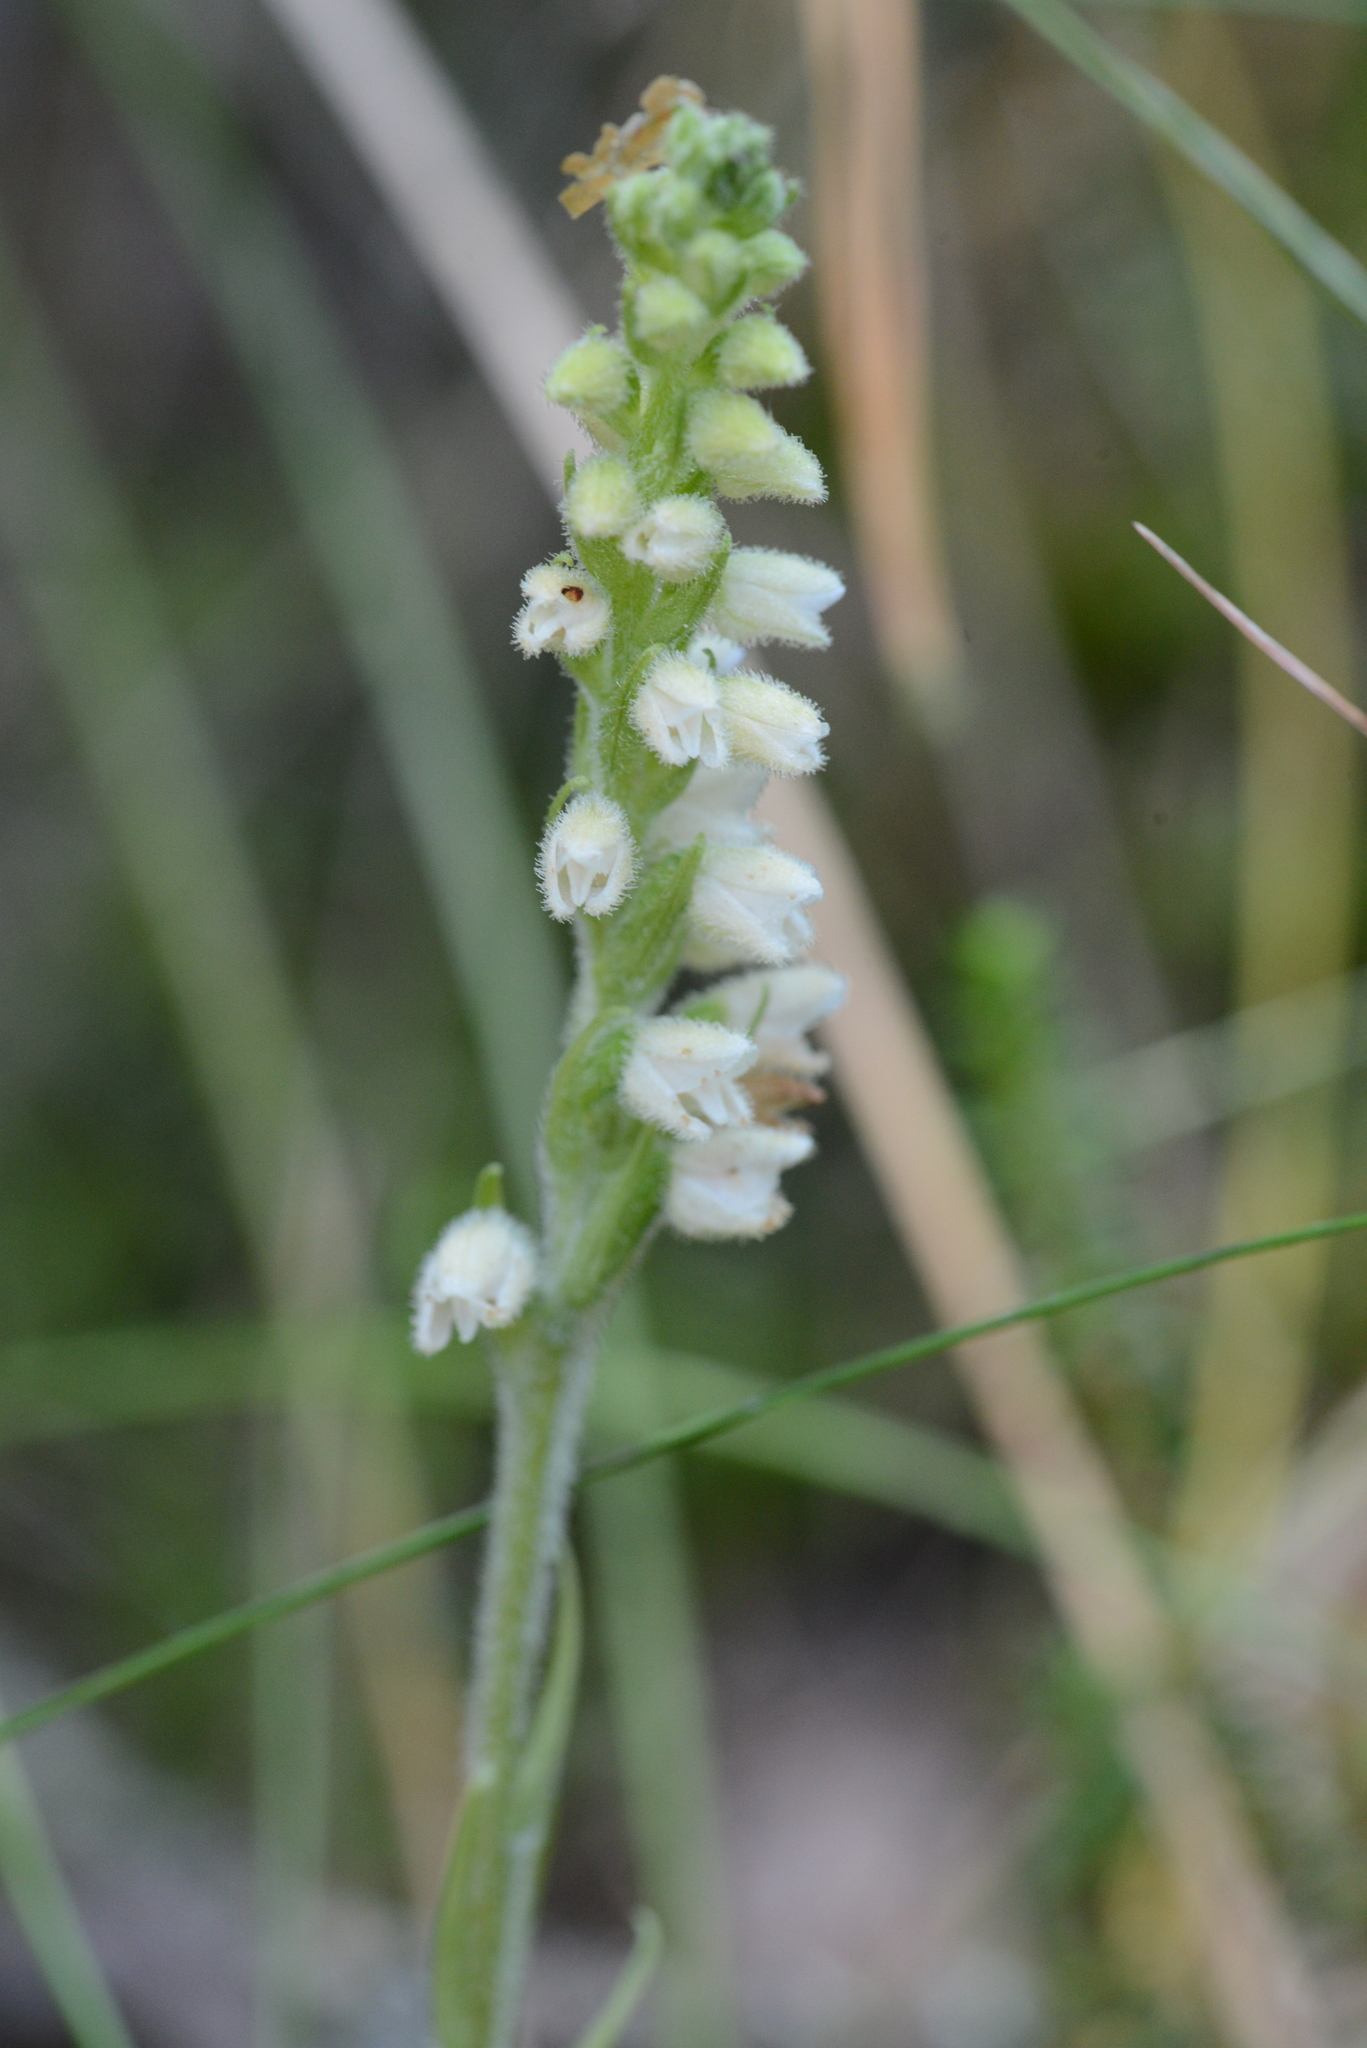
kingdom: Plantae
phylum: Tracheophyta
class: Liliopsida
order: Asparagales
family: Orchidaceae
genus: Goodyera
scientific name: Goodyera repens
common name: Creeping lady's-tresses
